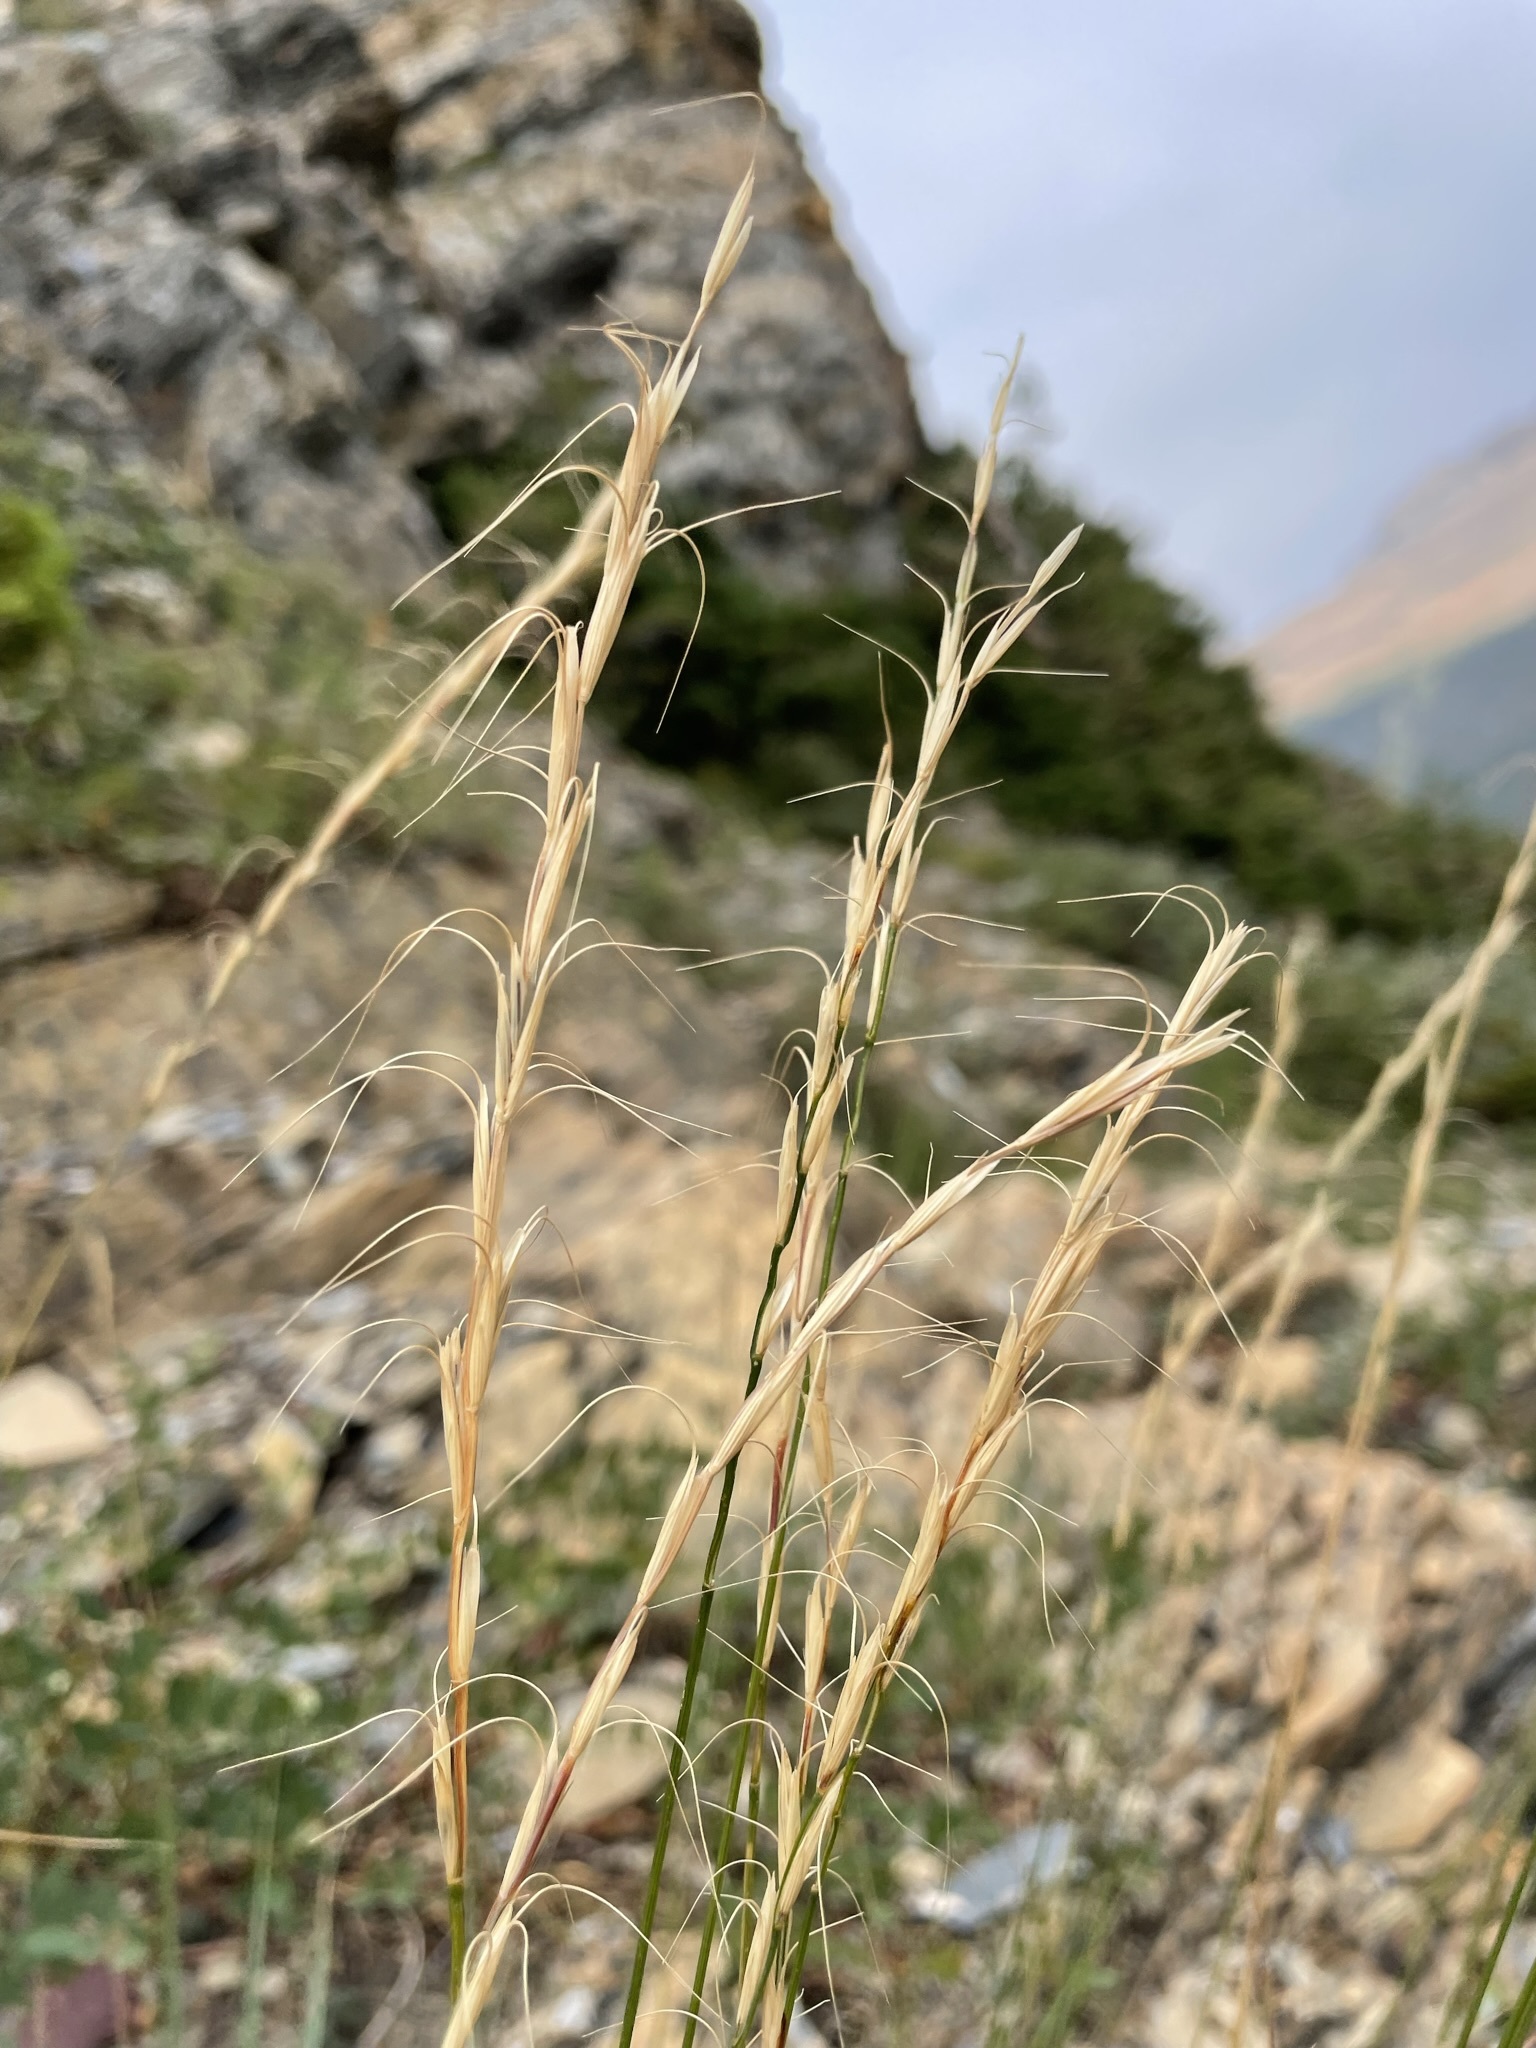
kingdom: Plantae
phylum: Tracheophyta
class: Liliopsida
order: Poales
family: Poaceae
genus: Pseudoroegneria
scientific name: Pseudoroegneria spicata
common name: Bluebunch wheatgrass
